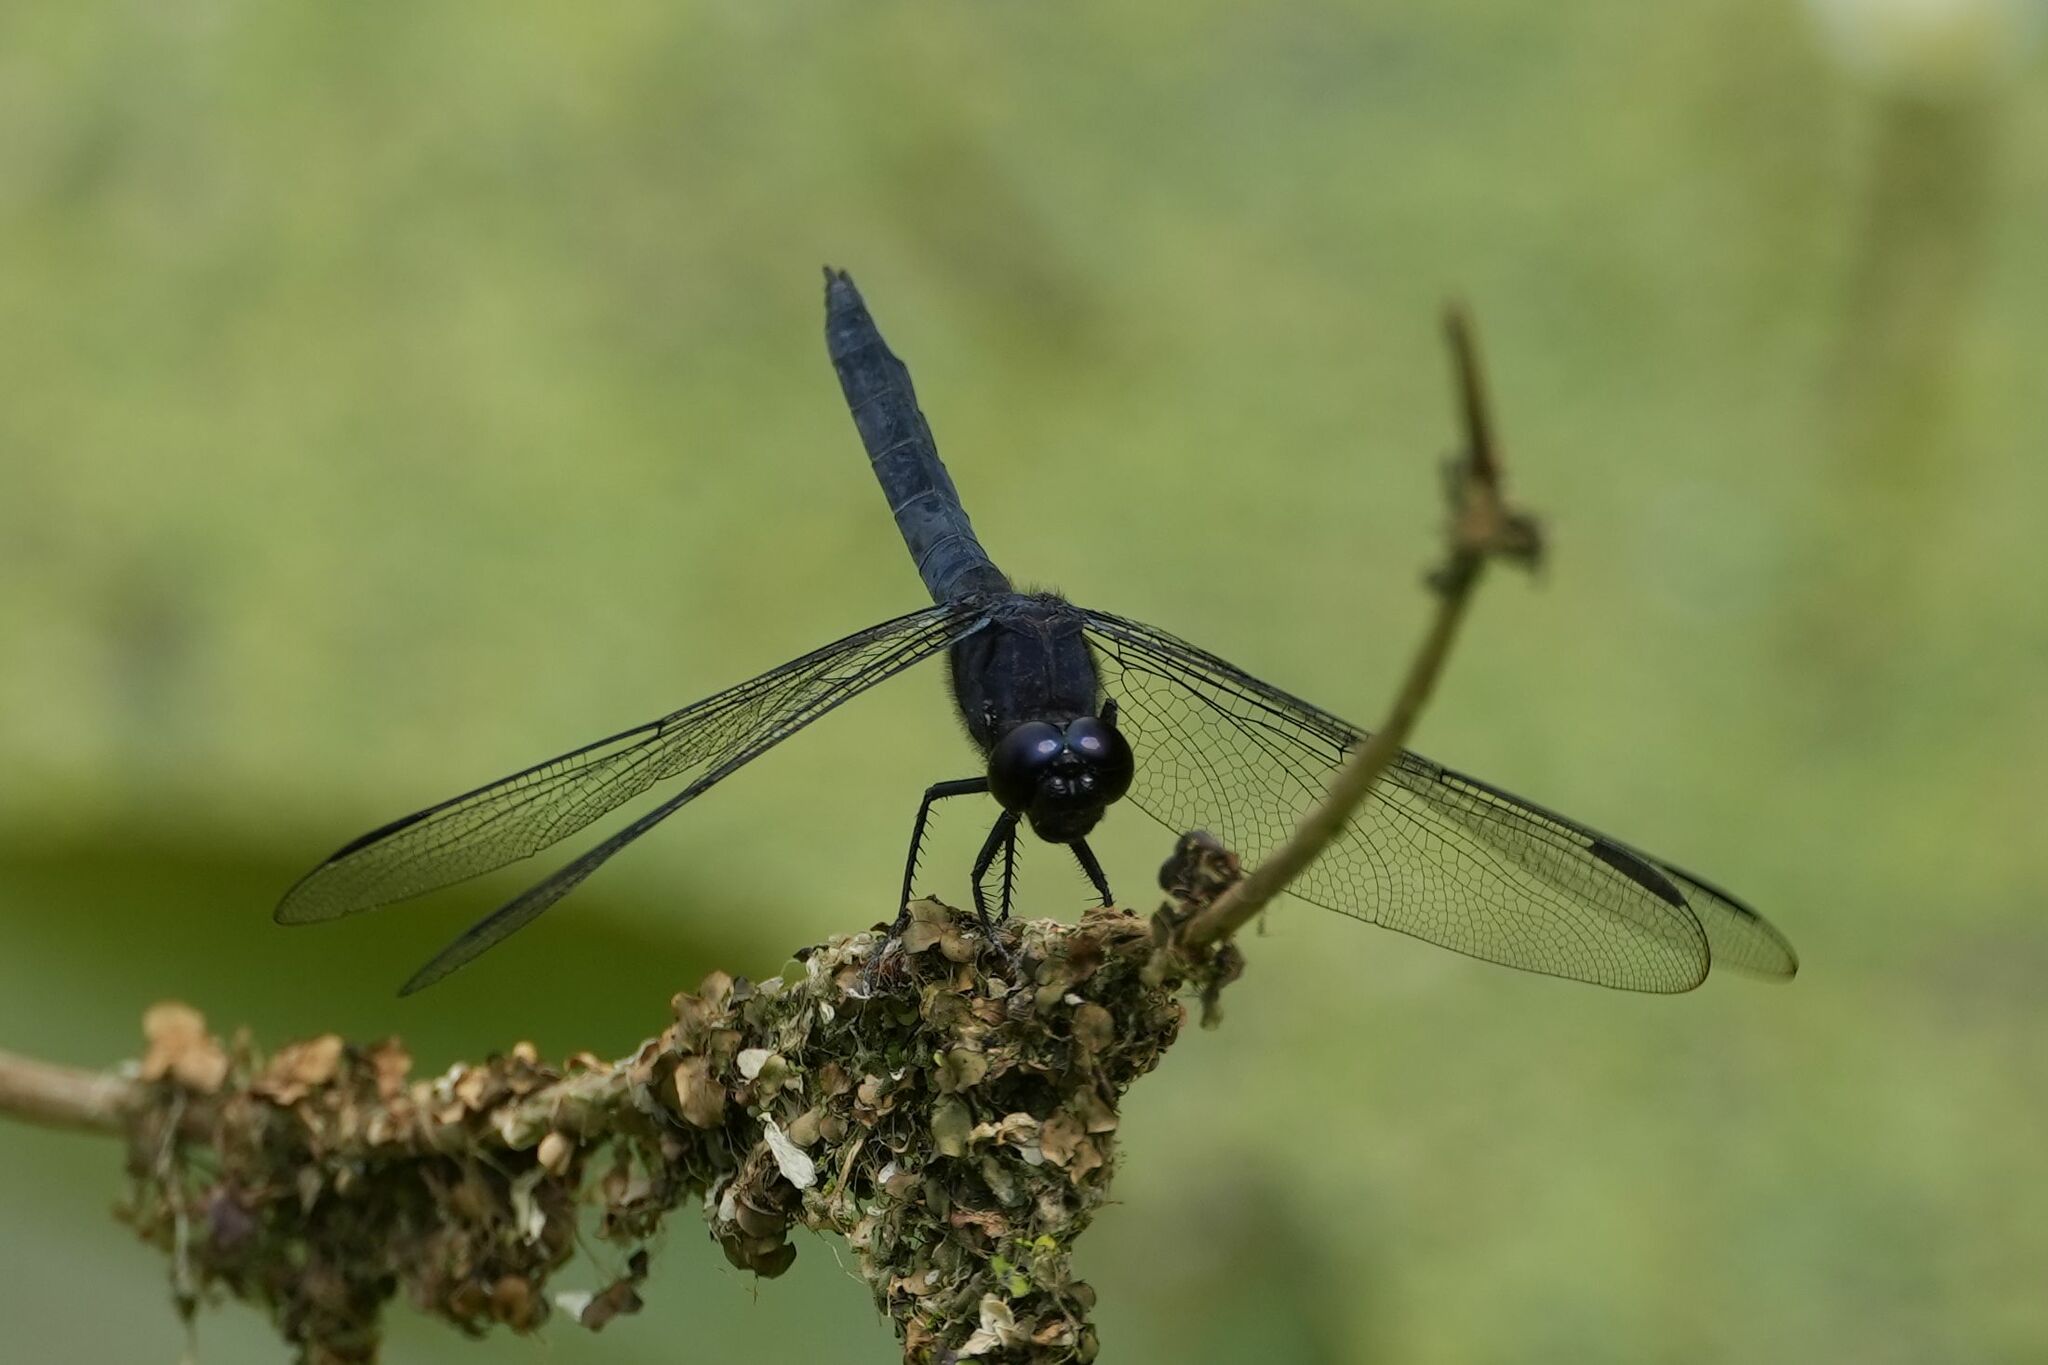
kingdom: Animalia
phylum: Arthropoda
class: Insecta
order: Odonata
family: Libellulidae
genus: Libellula
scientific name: Libellula incesta
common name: Slaty skimmer
